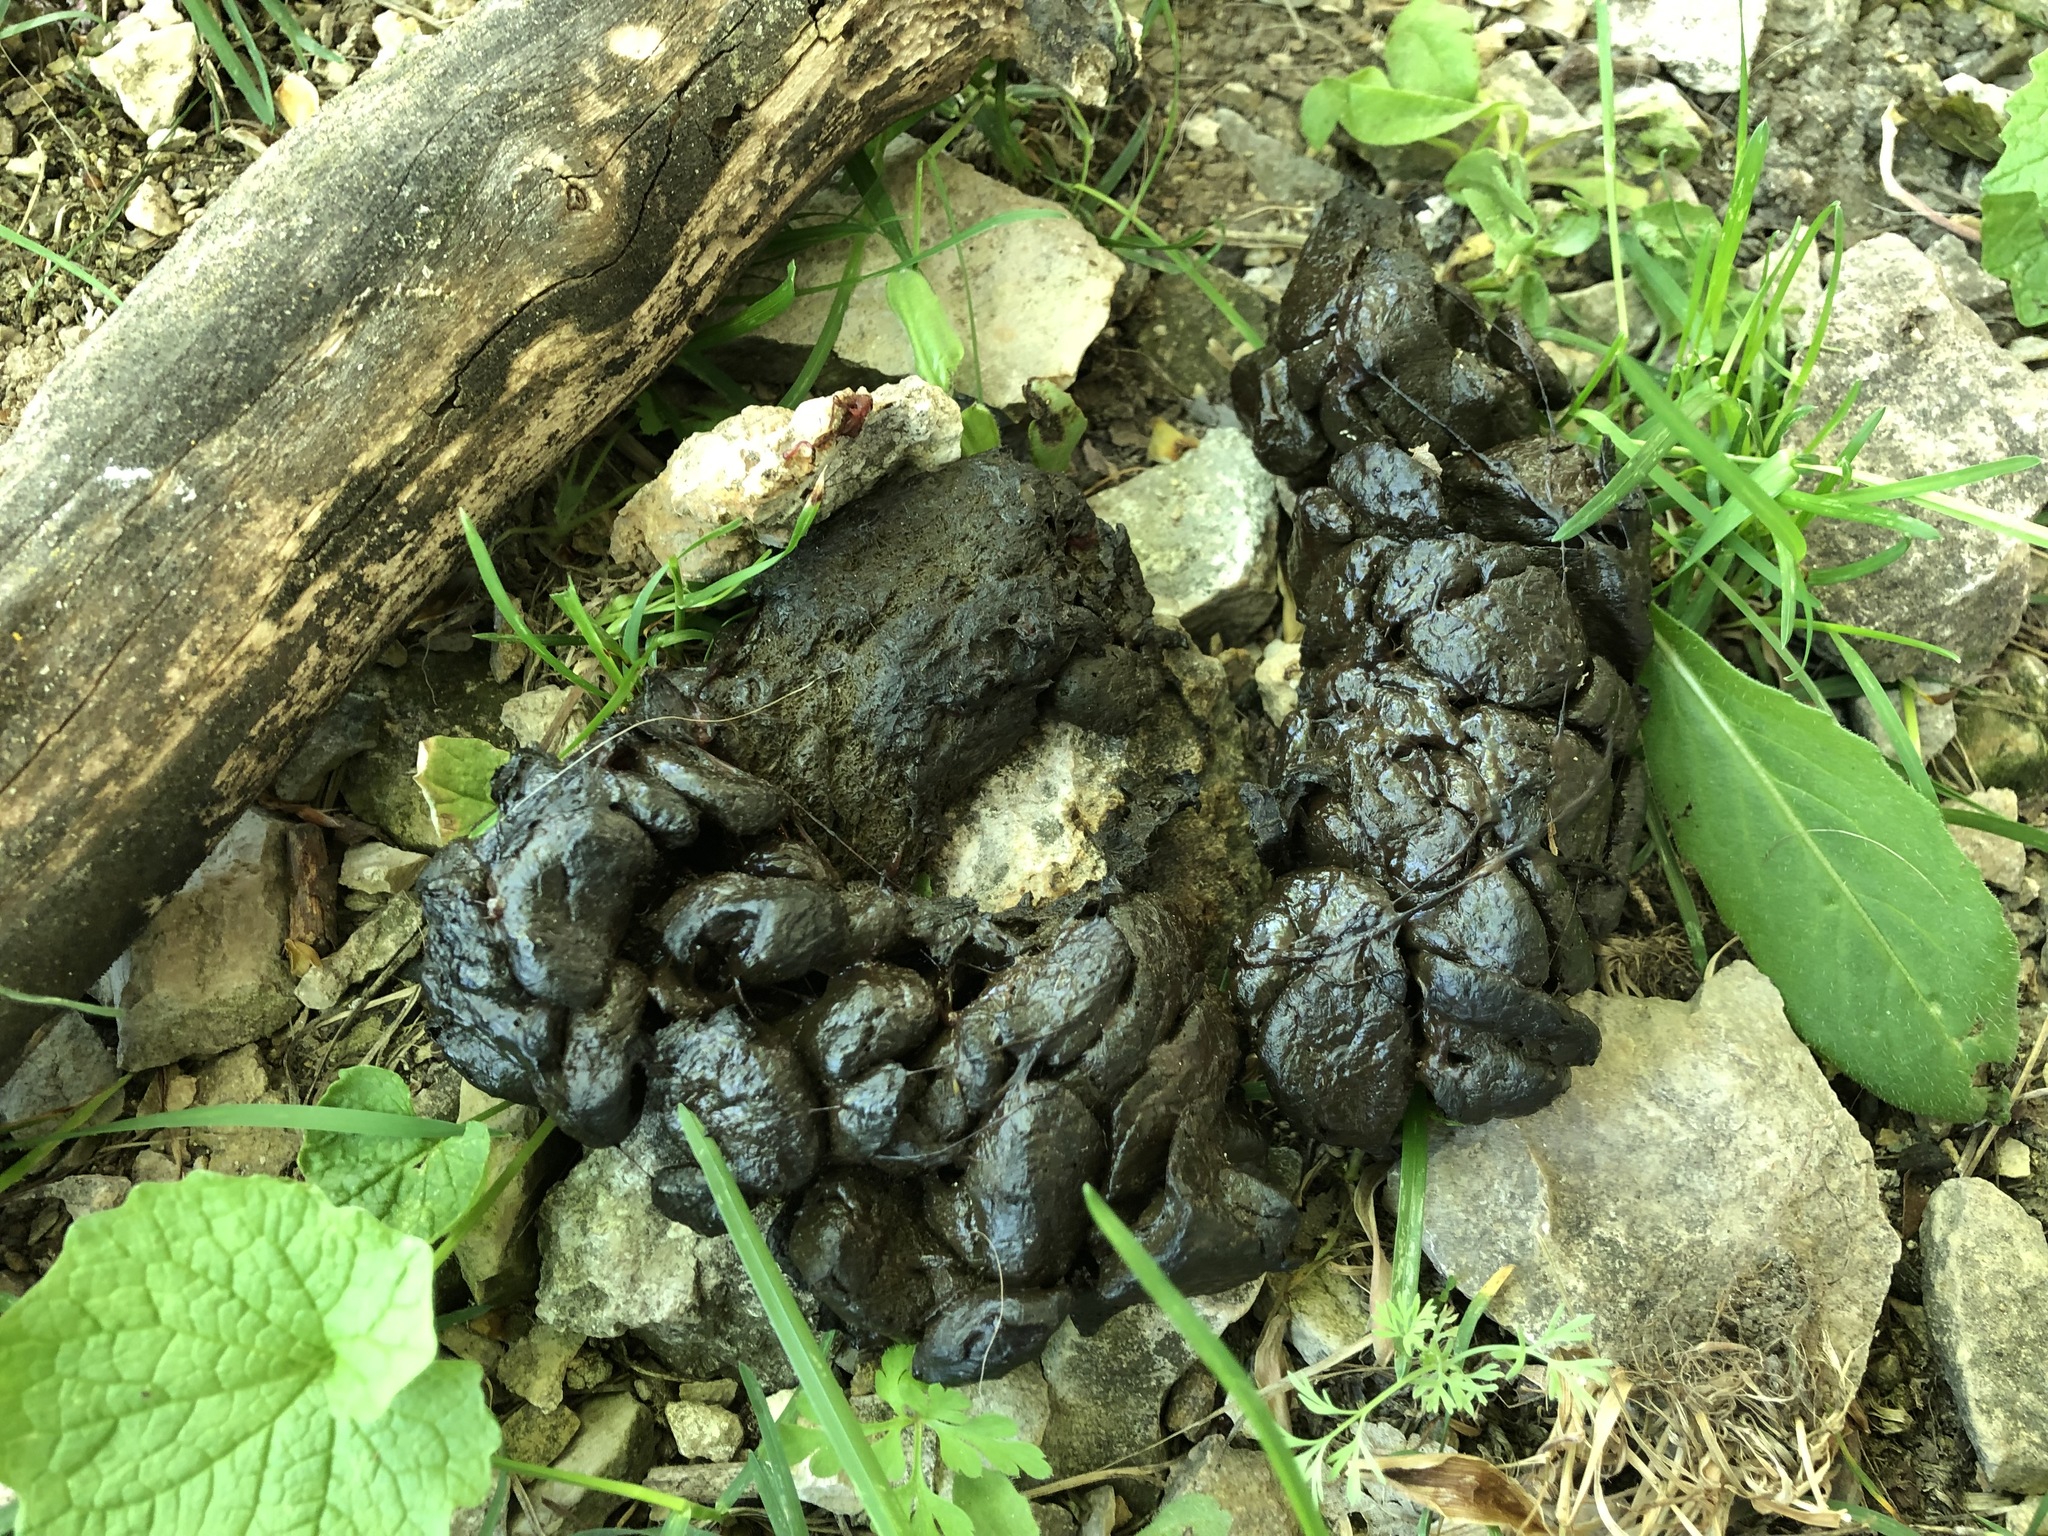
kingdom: Animalia
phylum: Chordata
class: Mammalia
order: Artiodactyla
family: Bovidae
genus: Capra
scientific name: Capra ibex
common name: Alpine ibex
